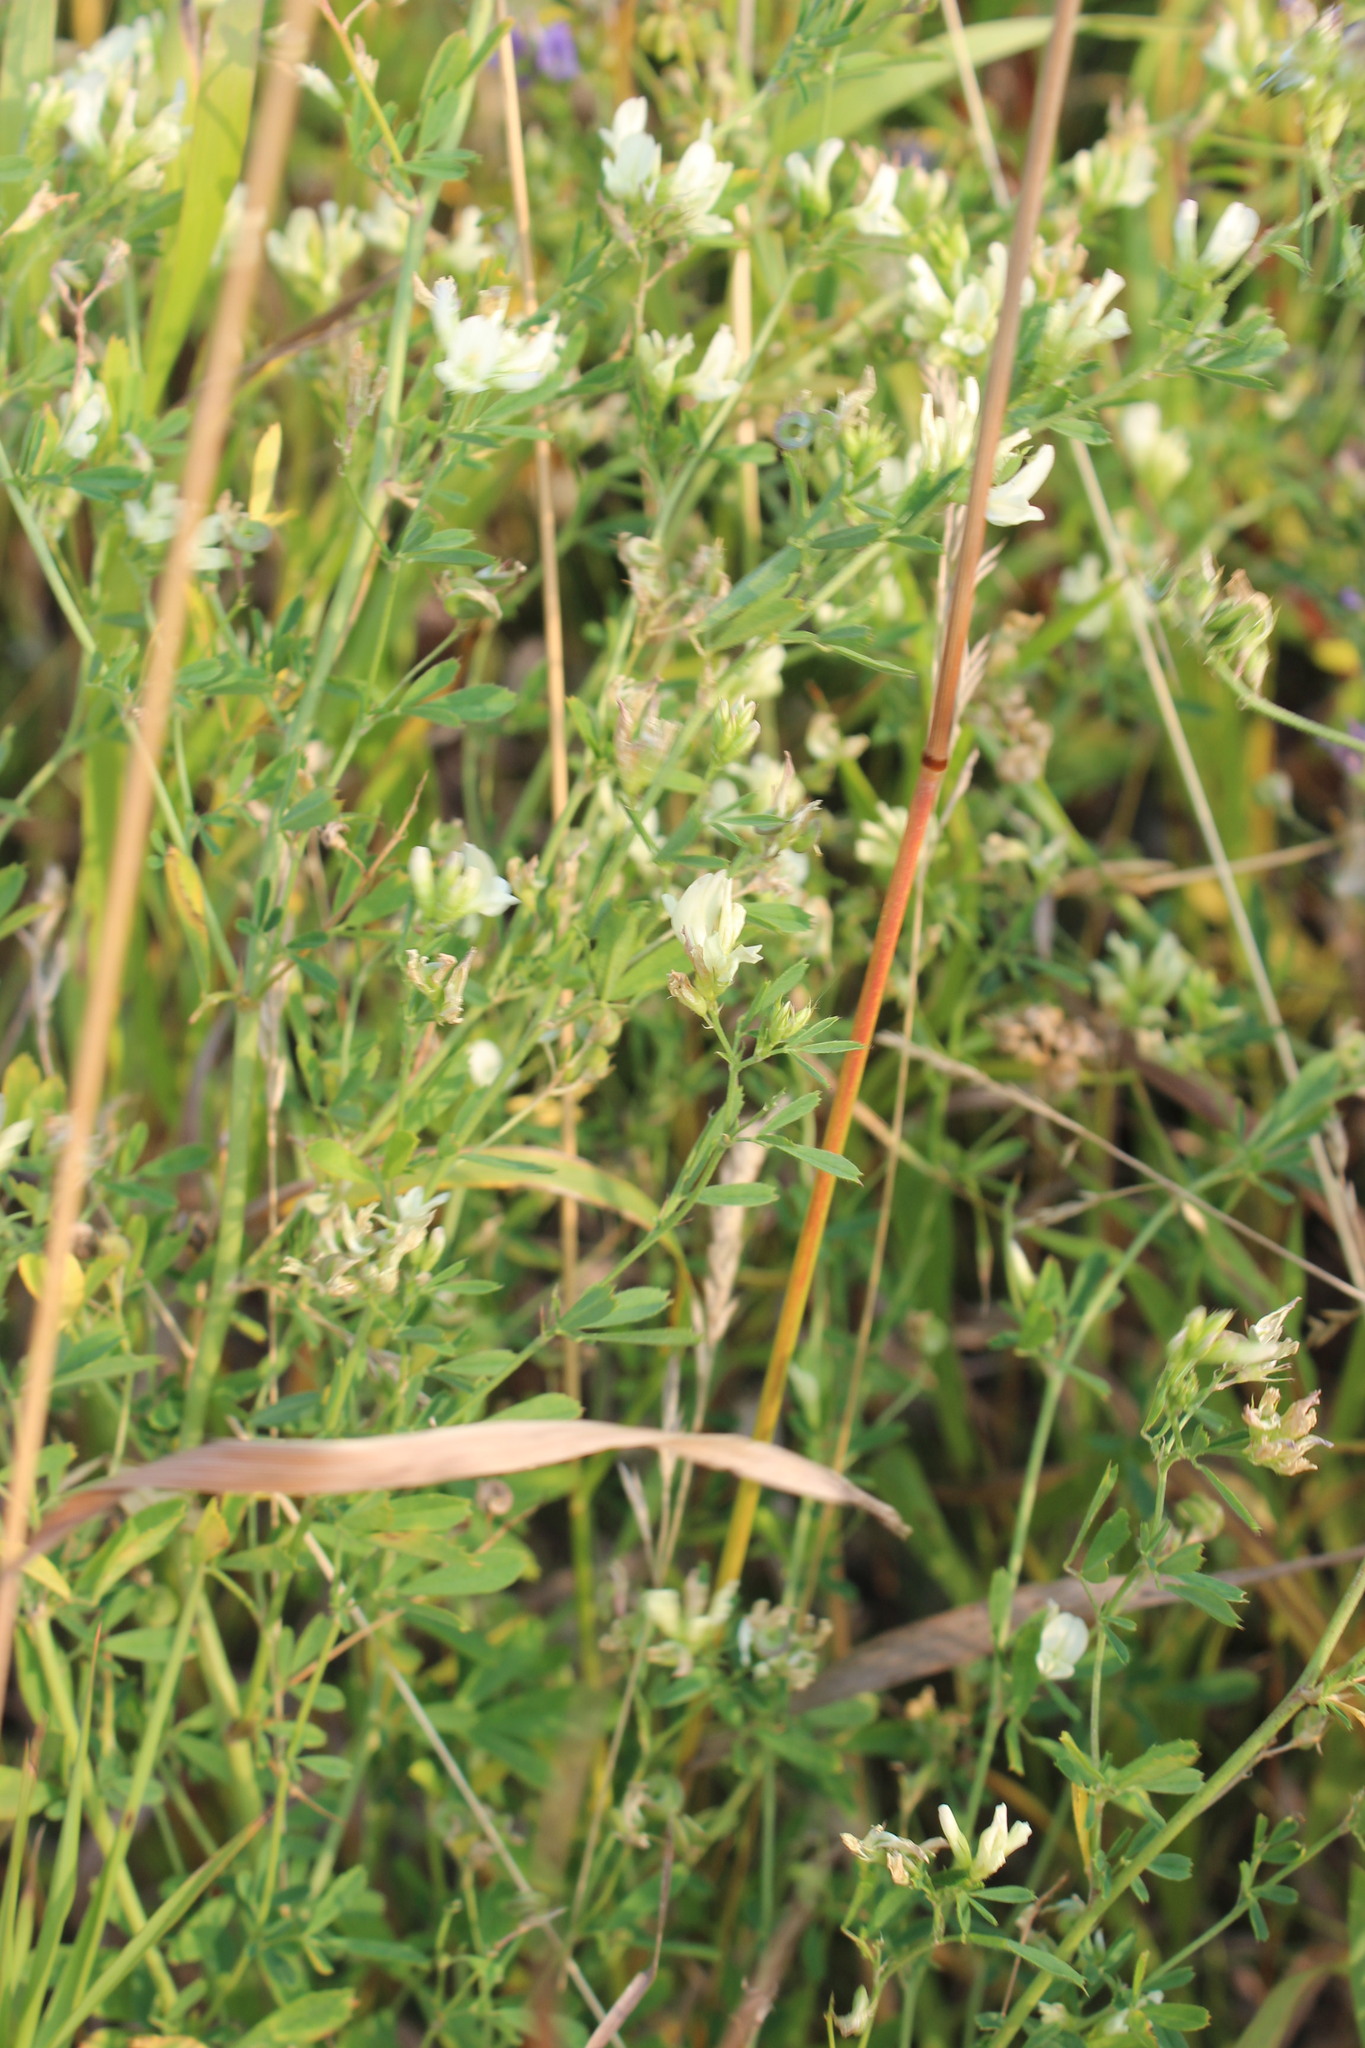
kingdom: Plantae
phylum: Tracheophyta
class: Magnoliopsida
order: Fabales
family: Fabaceae
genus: Medicago
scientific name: Medicago varia
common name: Sand lucerne
